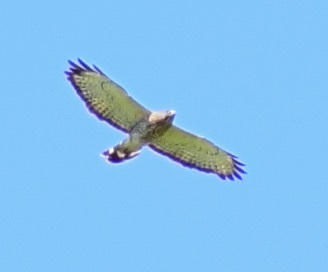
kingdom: Animalia
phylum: Chordata
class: Aves
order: Accipitriformes
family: Accipitridae
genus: Buteo
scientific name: Buteo platypterus
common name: Broad-winged hawk
